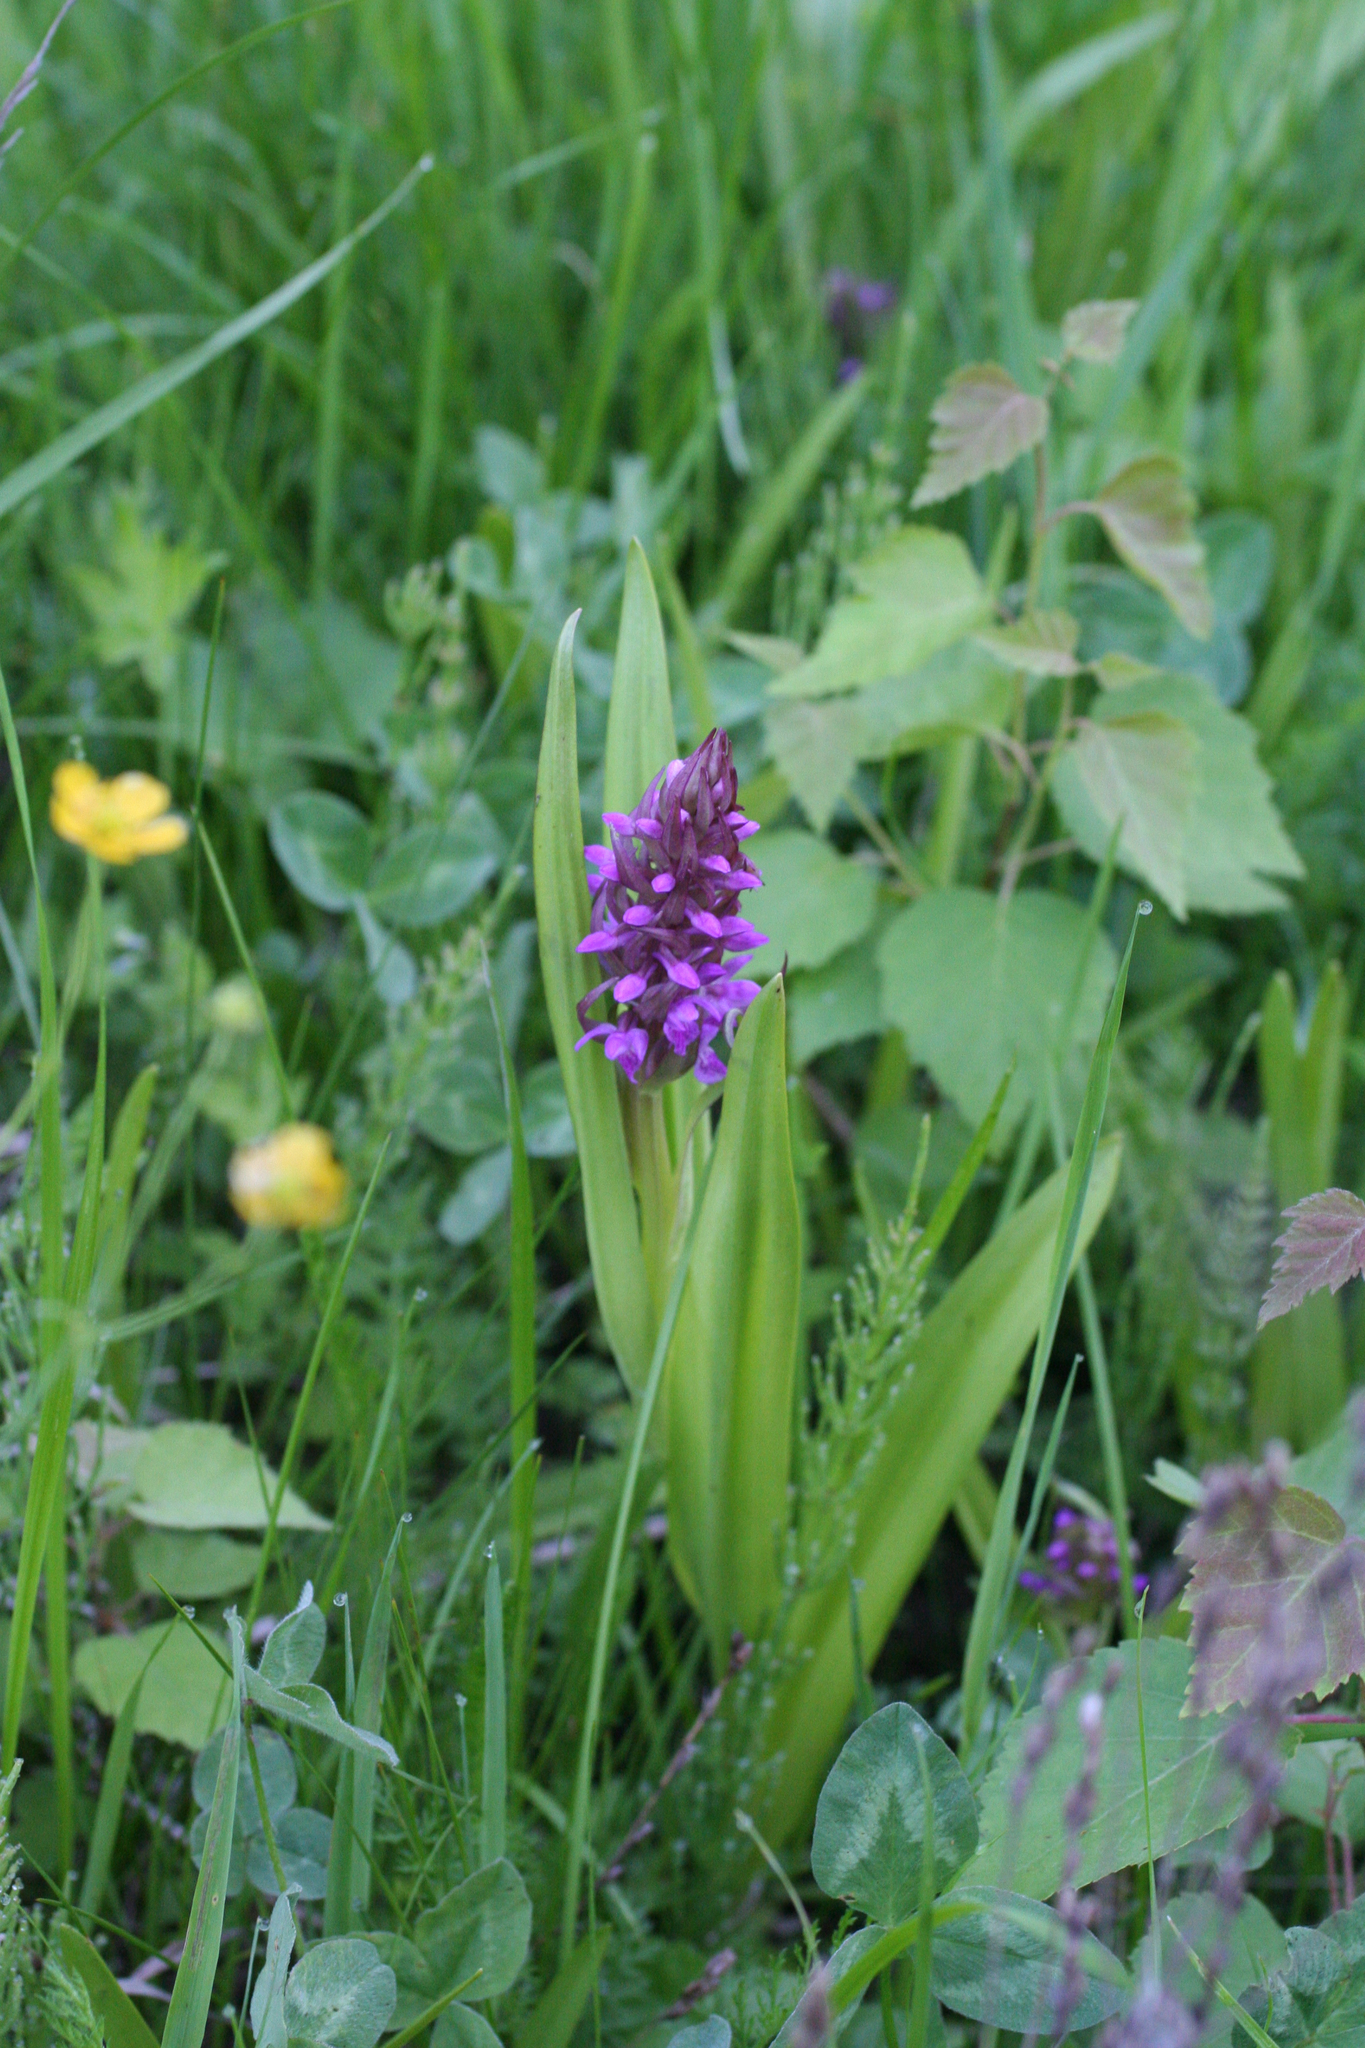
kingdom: Plantae
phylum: Tracheophyta
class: Liliopsida
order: Asparagales
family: Orchidaceae
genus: Dactylorhiza
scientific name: Dactylorhiza incarnata
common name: Early marsh-orchid
